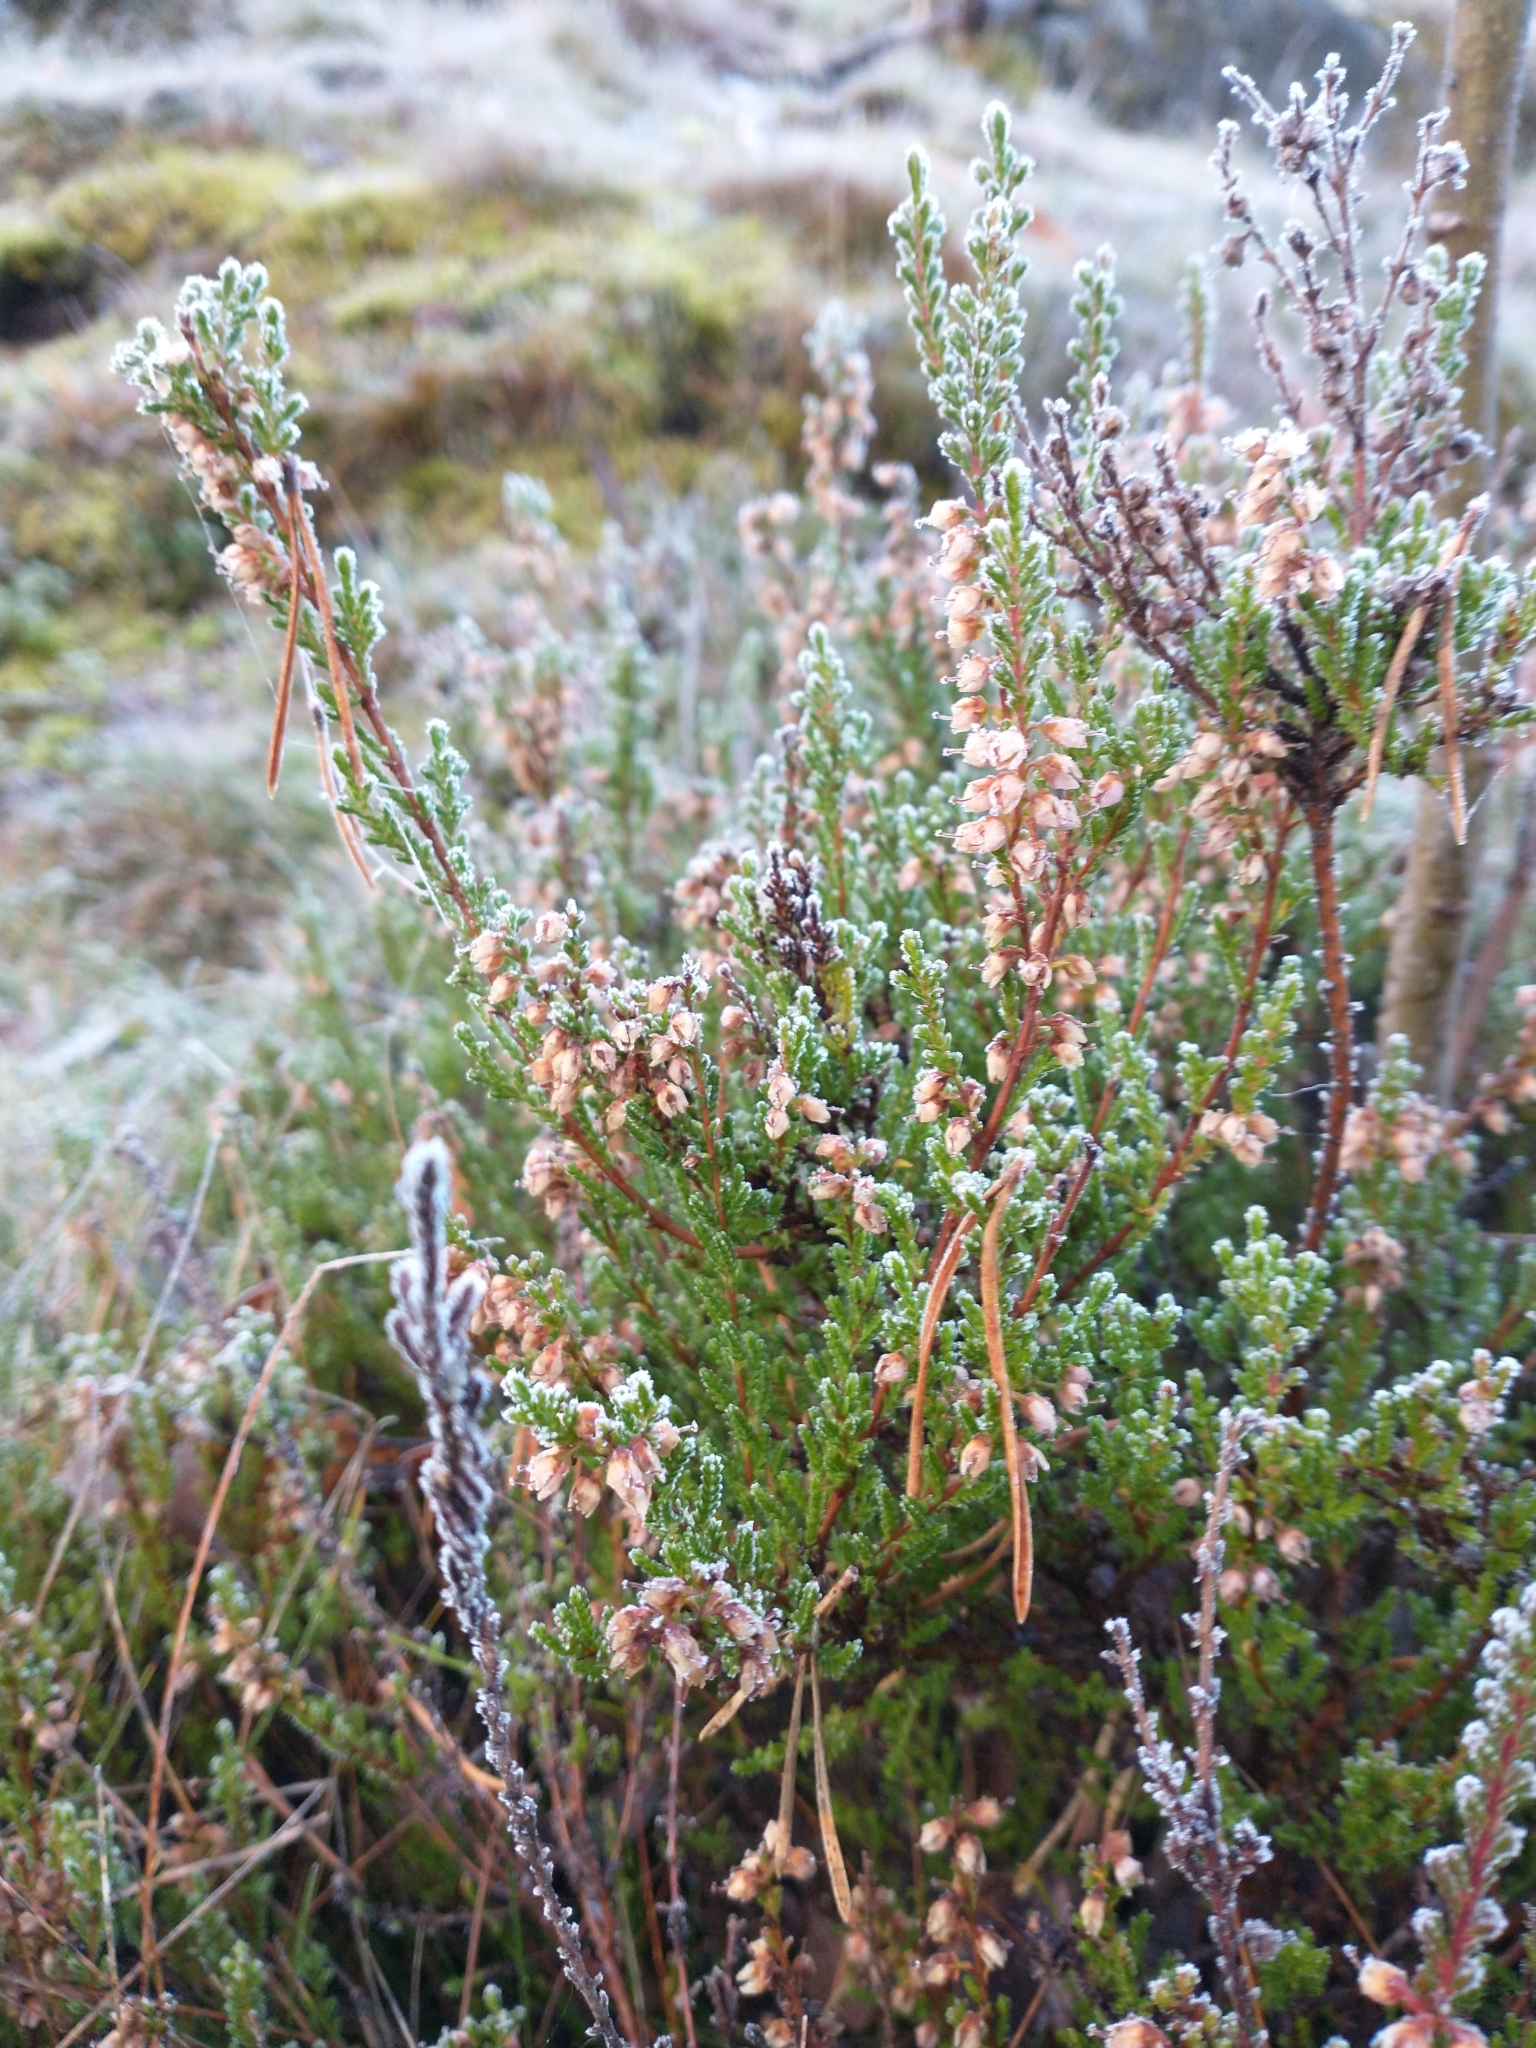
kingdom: Plantae
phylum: Tracheophyta
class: Magnoliopsida
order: Ericales
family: Ericaceae
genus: Calluna
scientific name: Calluna vulgaris
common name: Heather
